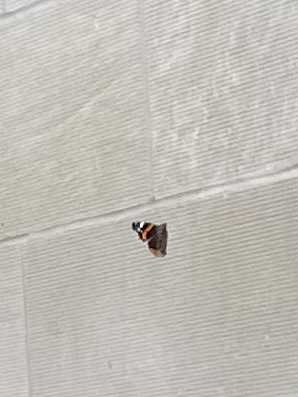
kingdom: Animalia
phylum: Arthropoda
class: Insecta
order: Lepidoptera
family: Nymphalidae
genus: Vanessa
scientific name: Vanessa atalanta
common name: Red admiral
